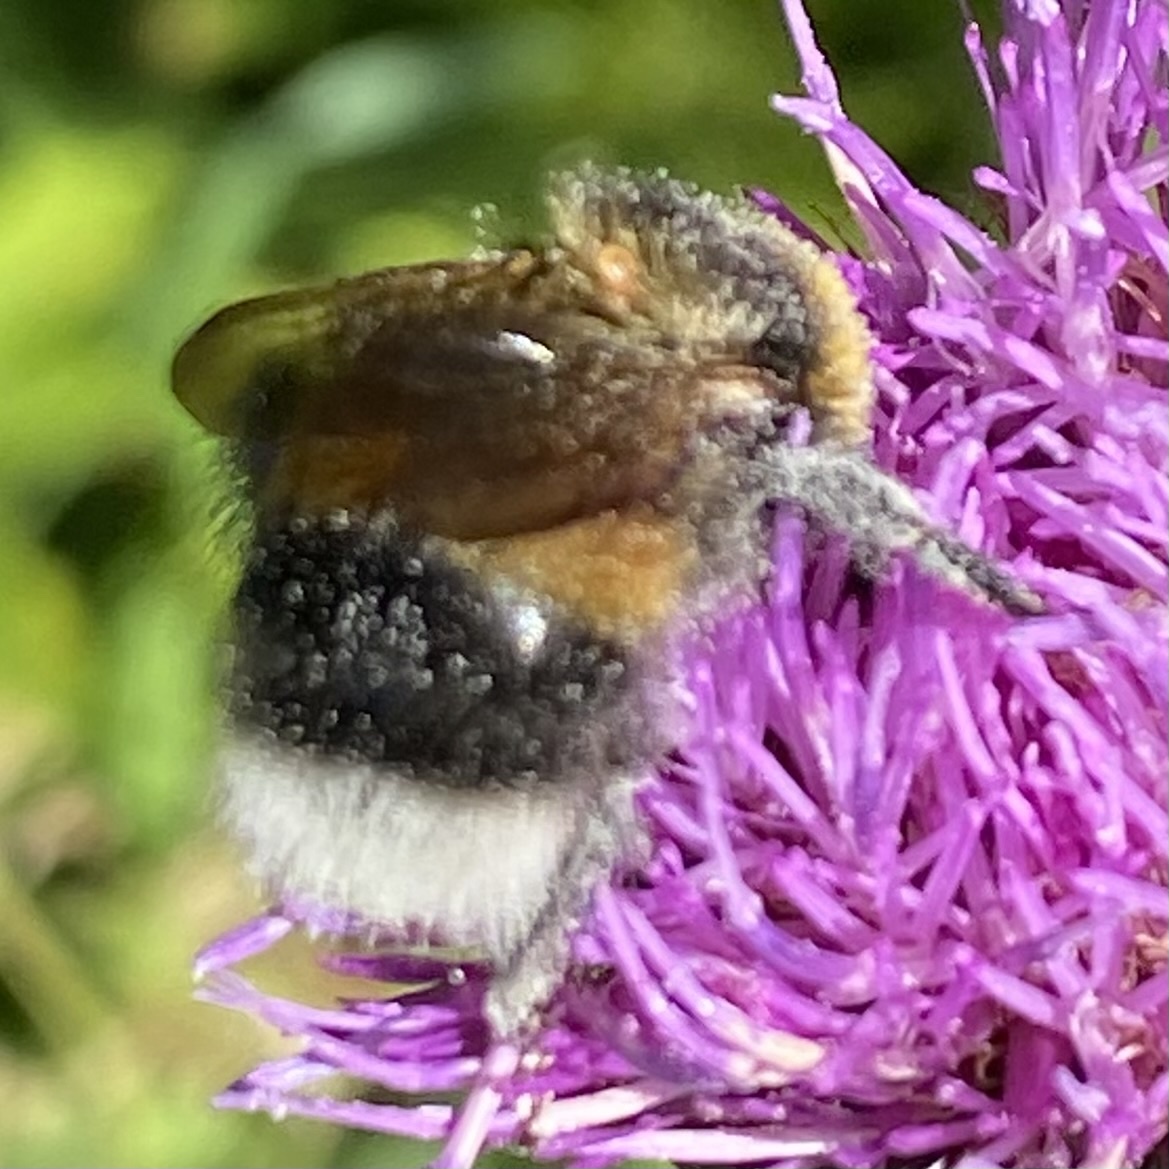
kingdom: Animalia
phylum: Arthropoda
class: Insecta
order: Hymenoptera
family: Apidae
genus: Bombus
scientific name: Bombus sporadicus
